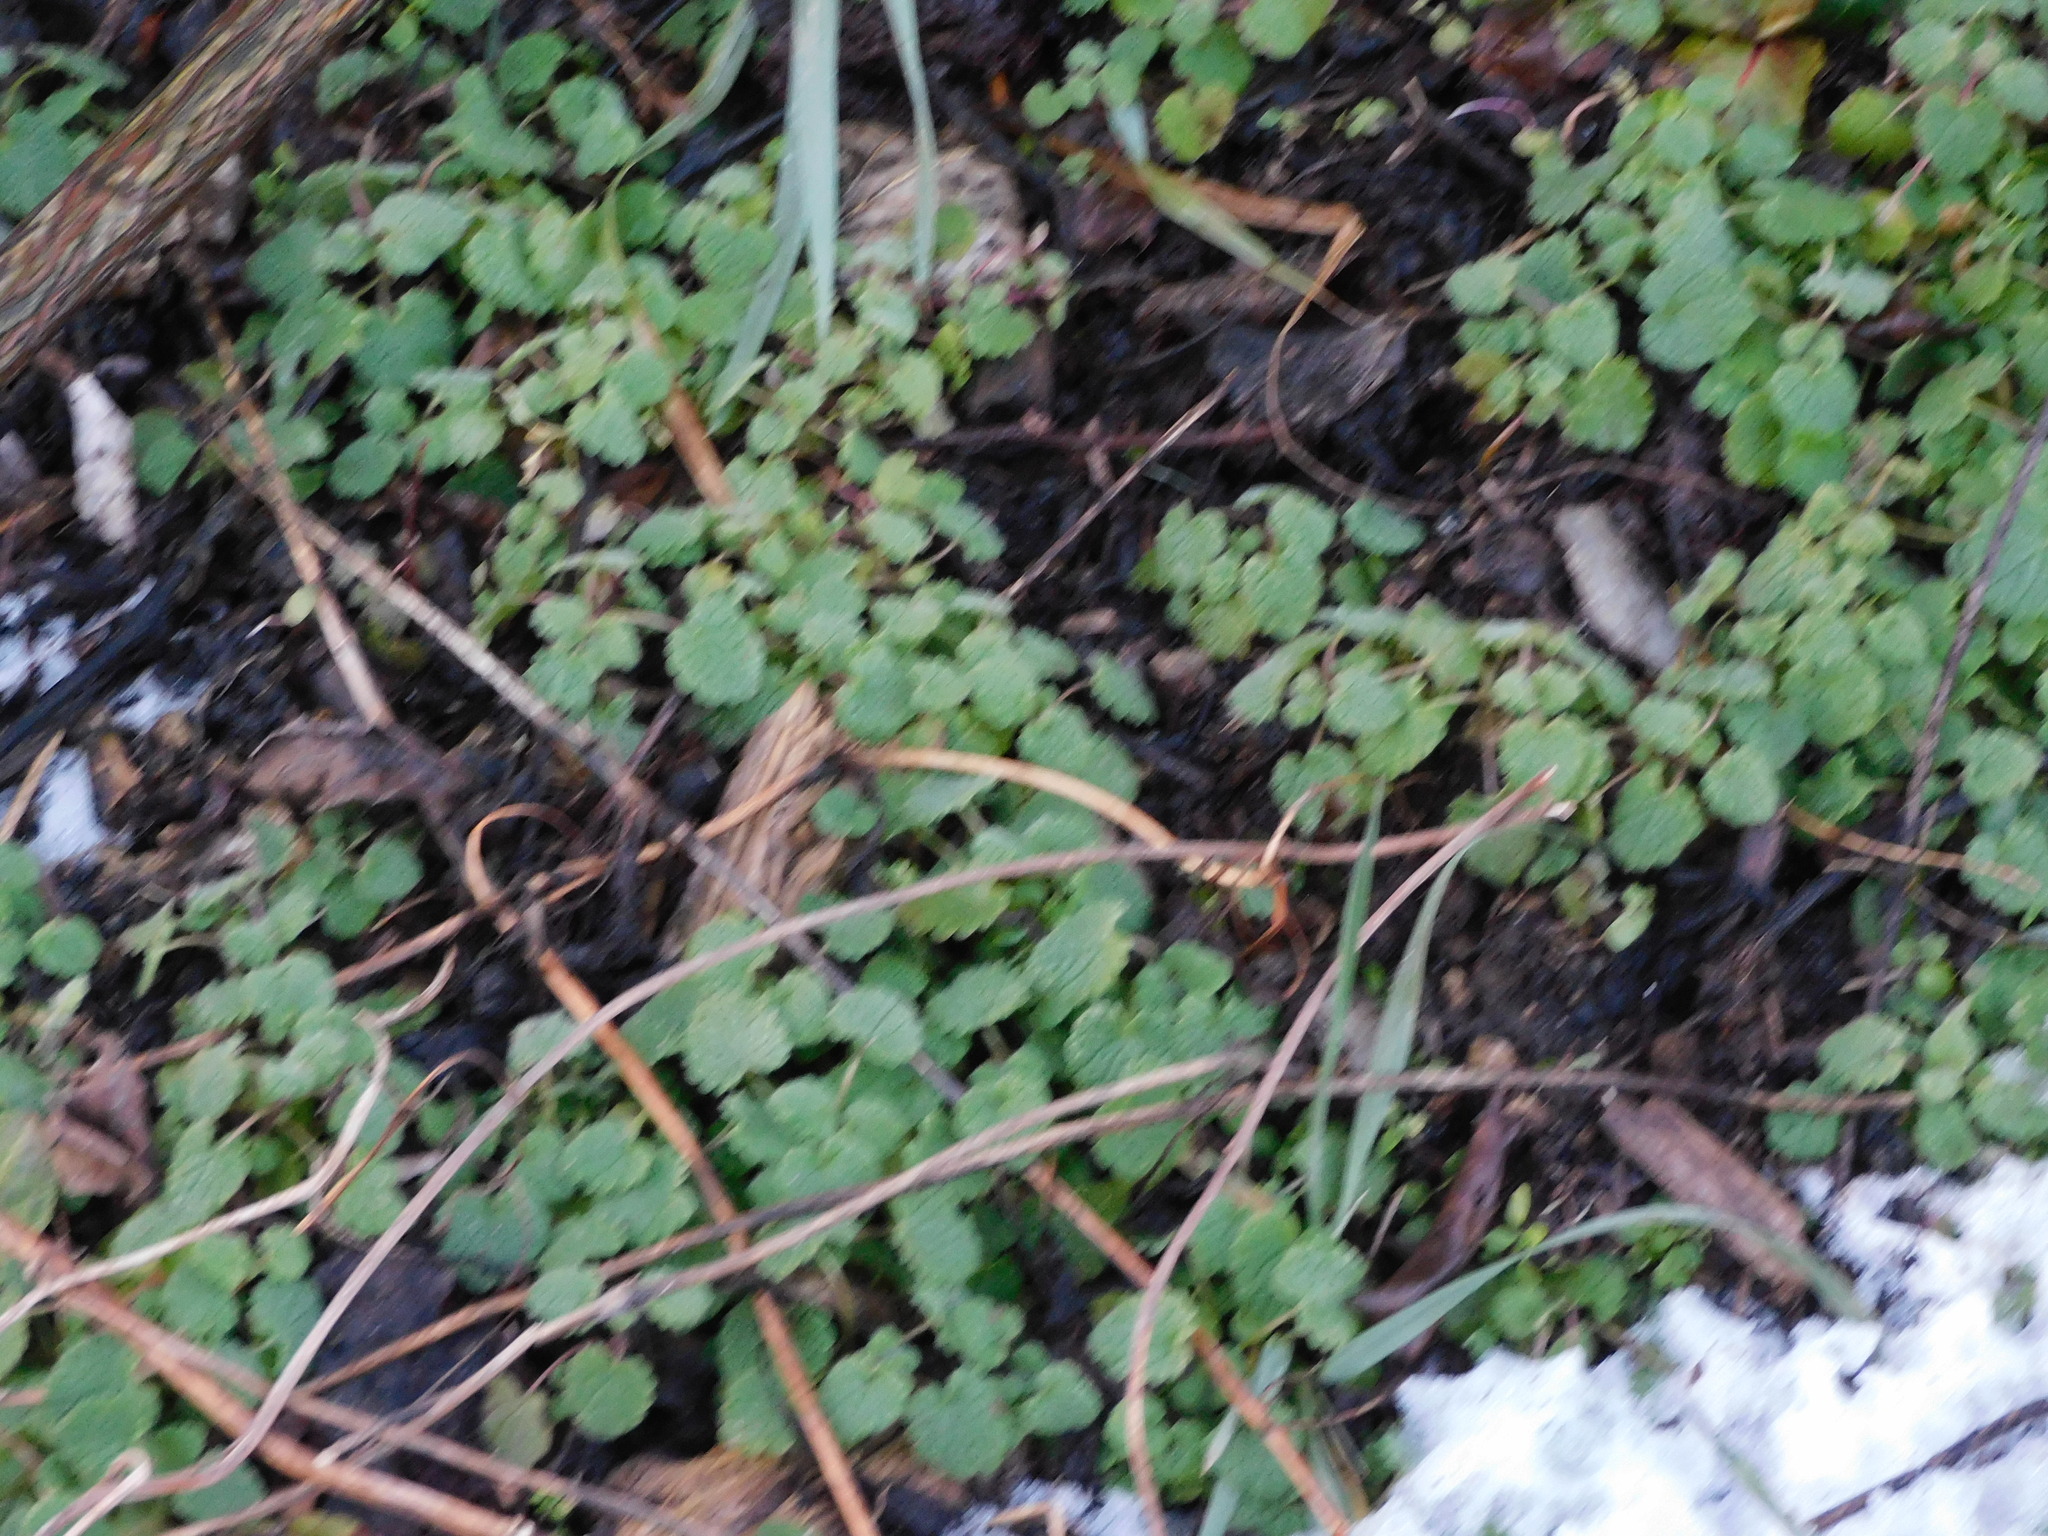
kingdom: Plantae
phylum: Tracheophyta
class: Magnoliopsida
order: Lamiales
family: Lamiaceae
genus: Lamium
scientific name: Lamium purpureum
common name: Red dead-nettle
